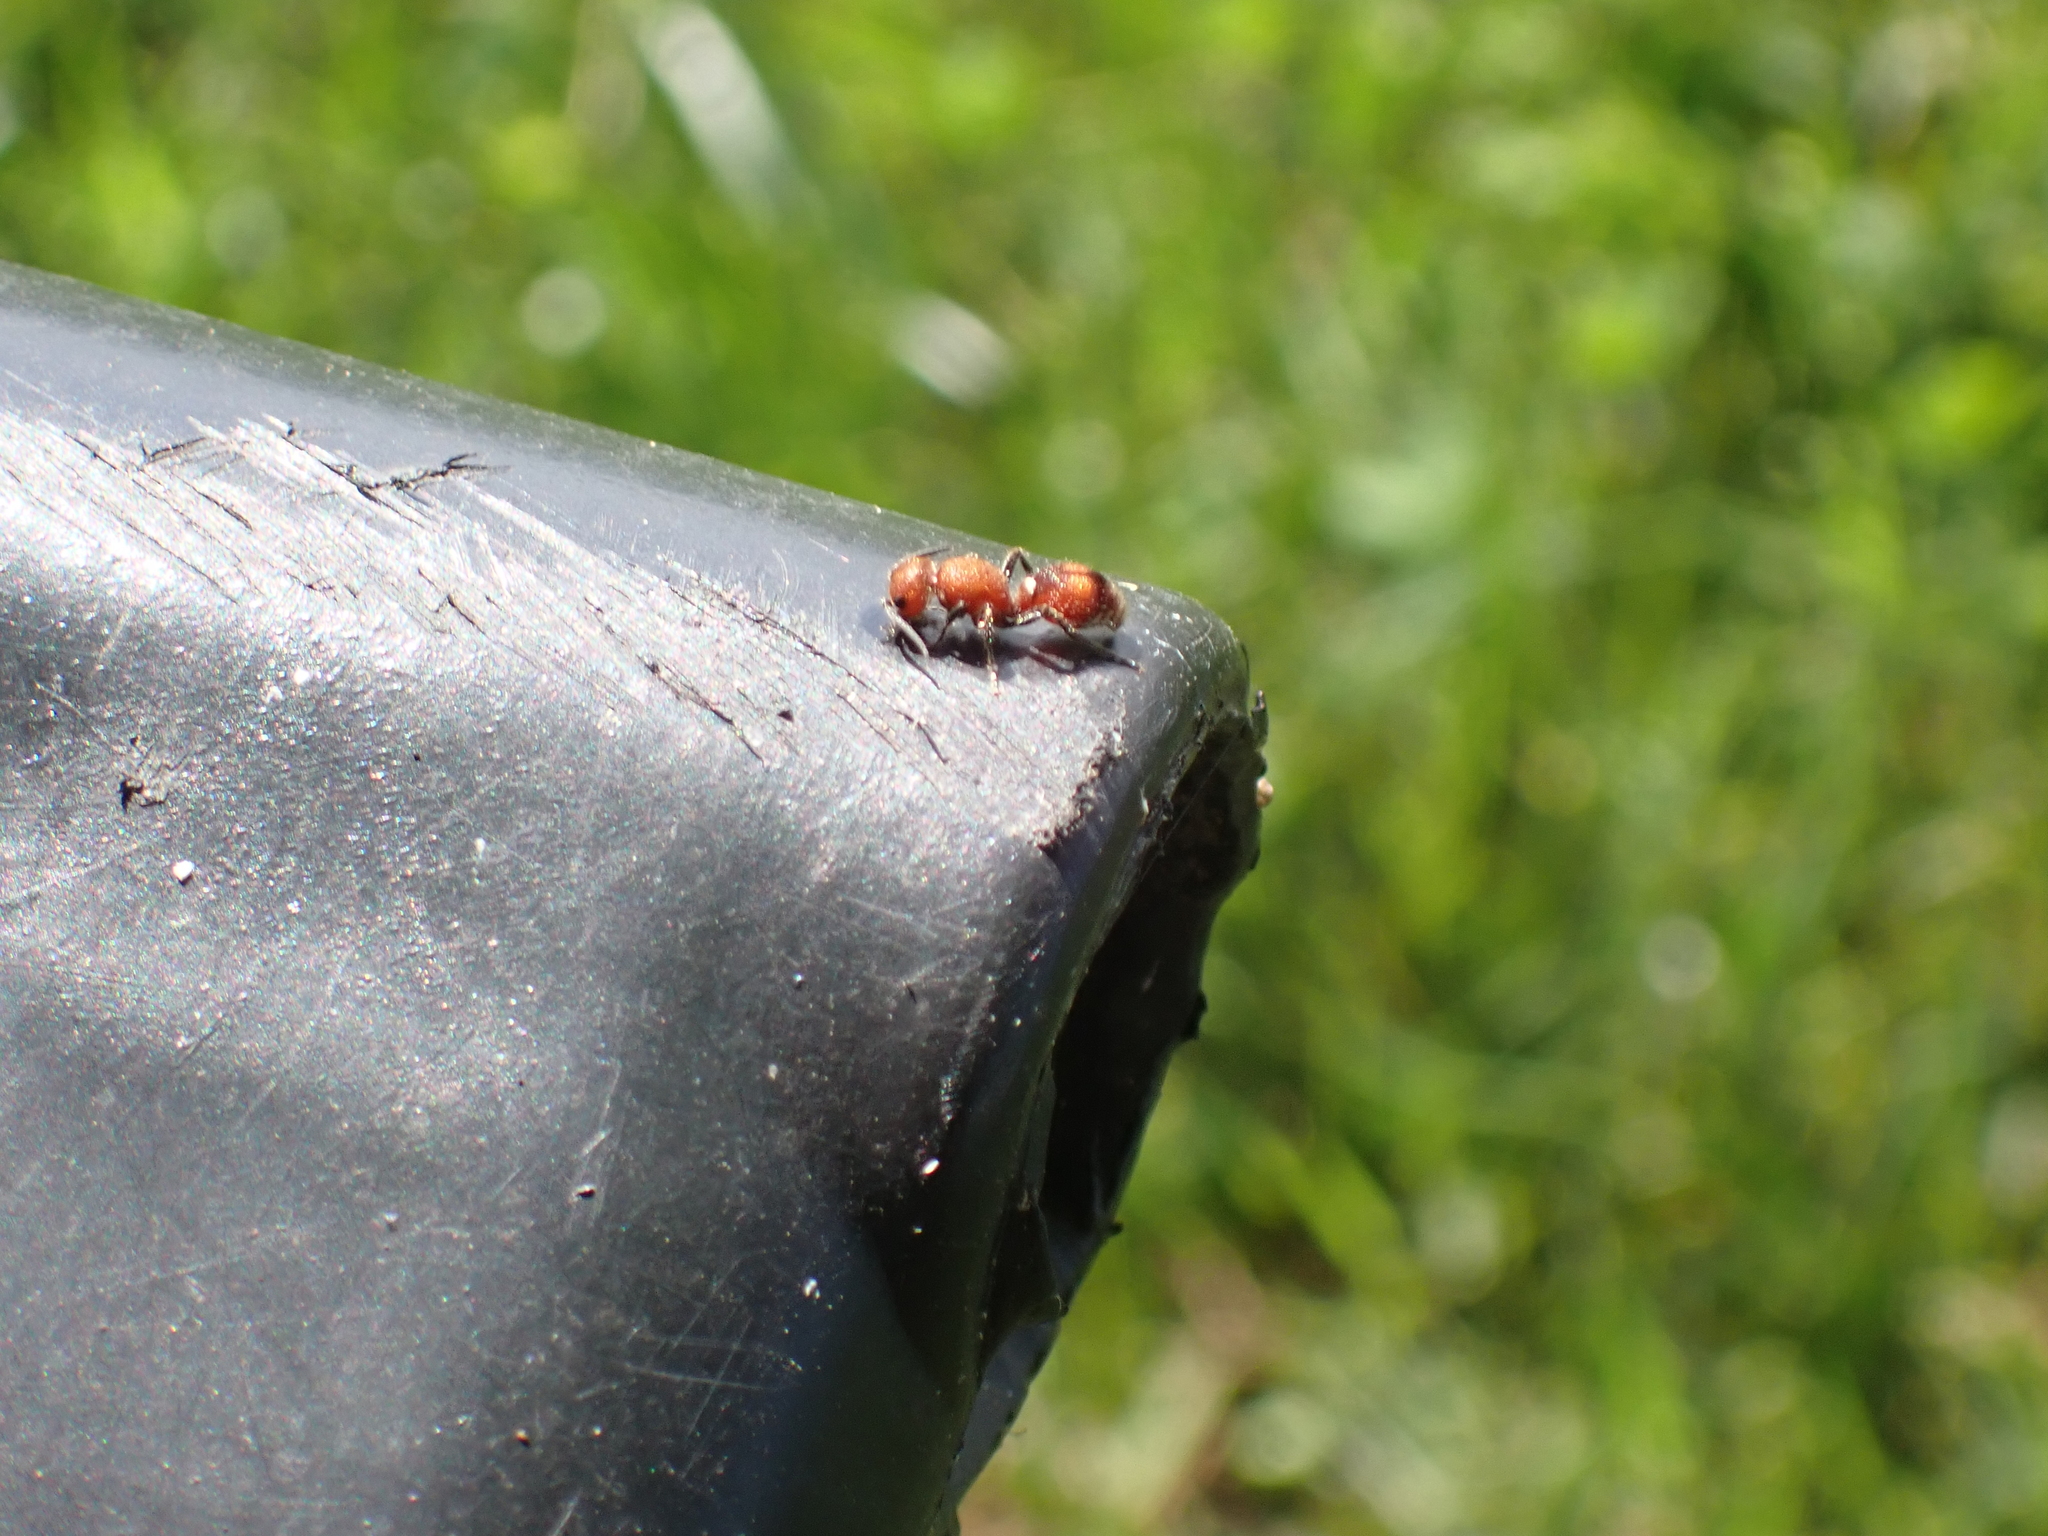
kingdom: Animalia
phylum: Arthropoda
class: Insecta
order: Hymenoptera
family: Mutillidae
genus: Dasymutilla
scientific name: Dasymutilla
